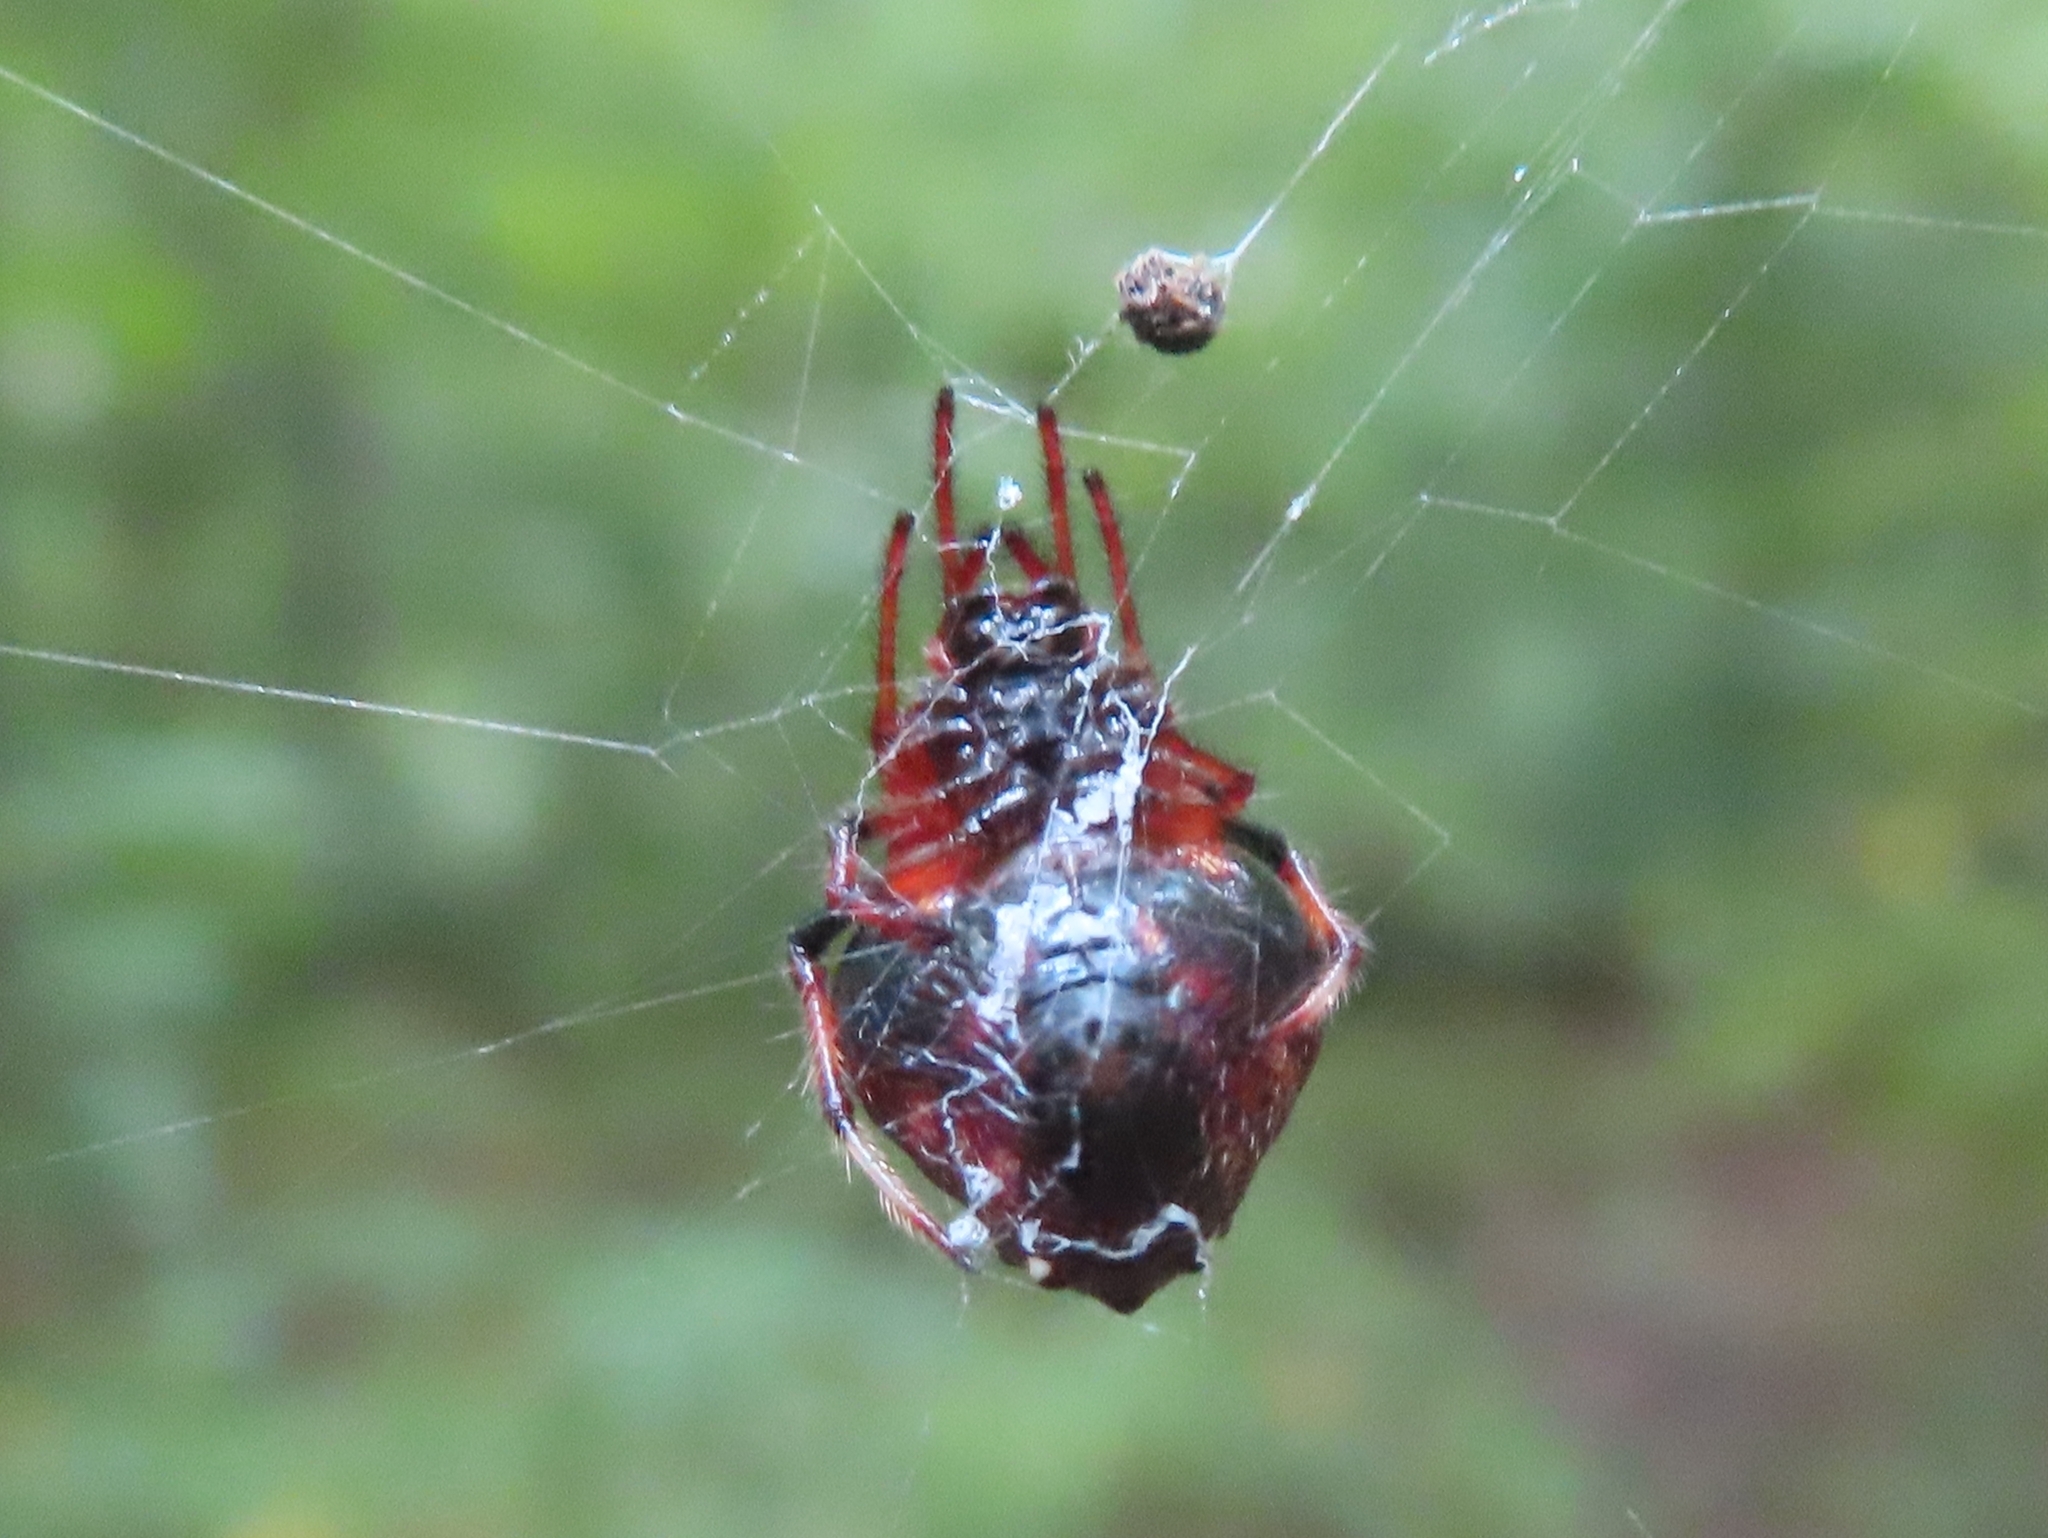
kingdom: Animalia
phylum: Arthropoda
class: Arachnida
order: Araneae
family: Araneidae
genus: Verrucosa
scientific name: Verrucosa arenata
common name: Orb weavers
